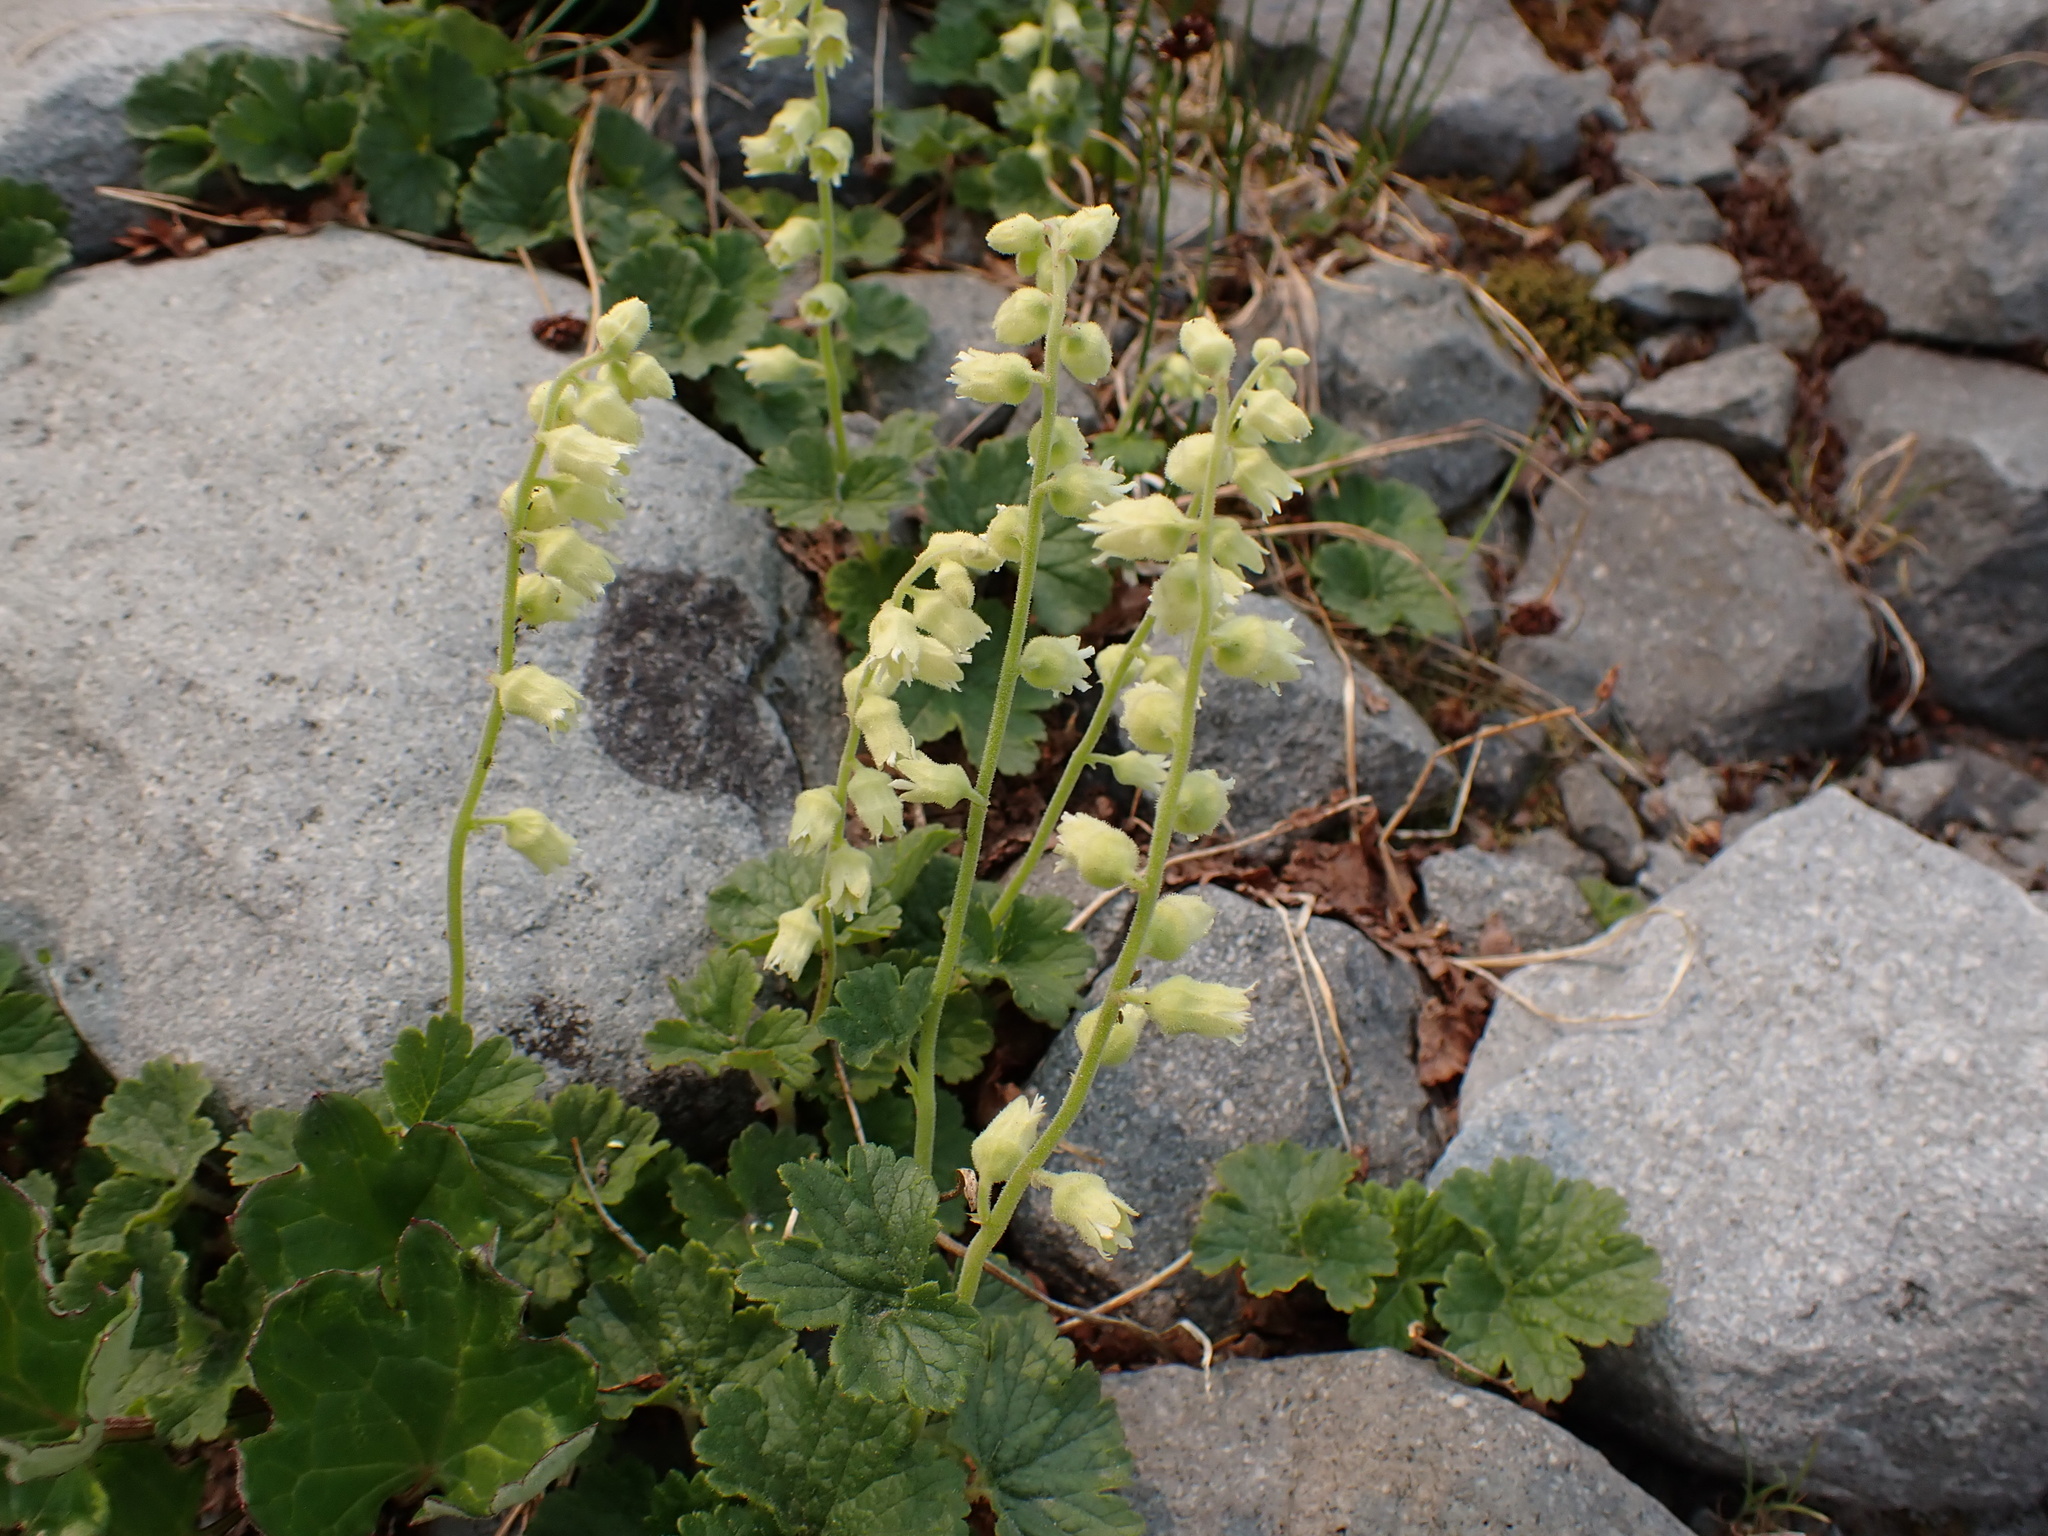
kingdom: Plantae
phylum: Tracheophyta
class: Magnoliopsida
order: Saxifragales
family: Saxifragaceae
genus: Elmera
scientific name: Elmera racemosa
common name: Elmera
